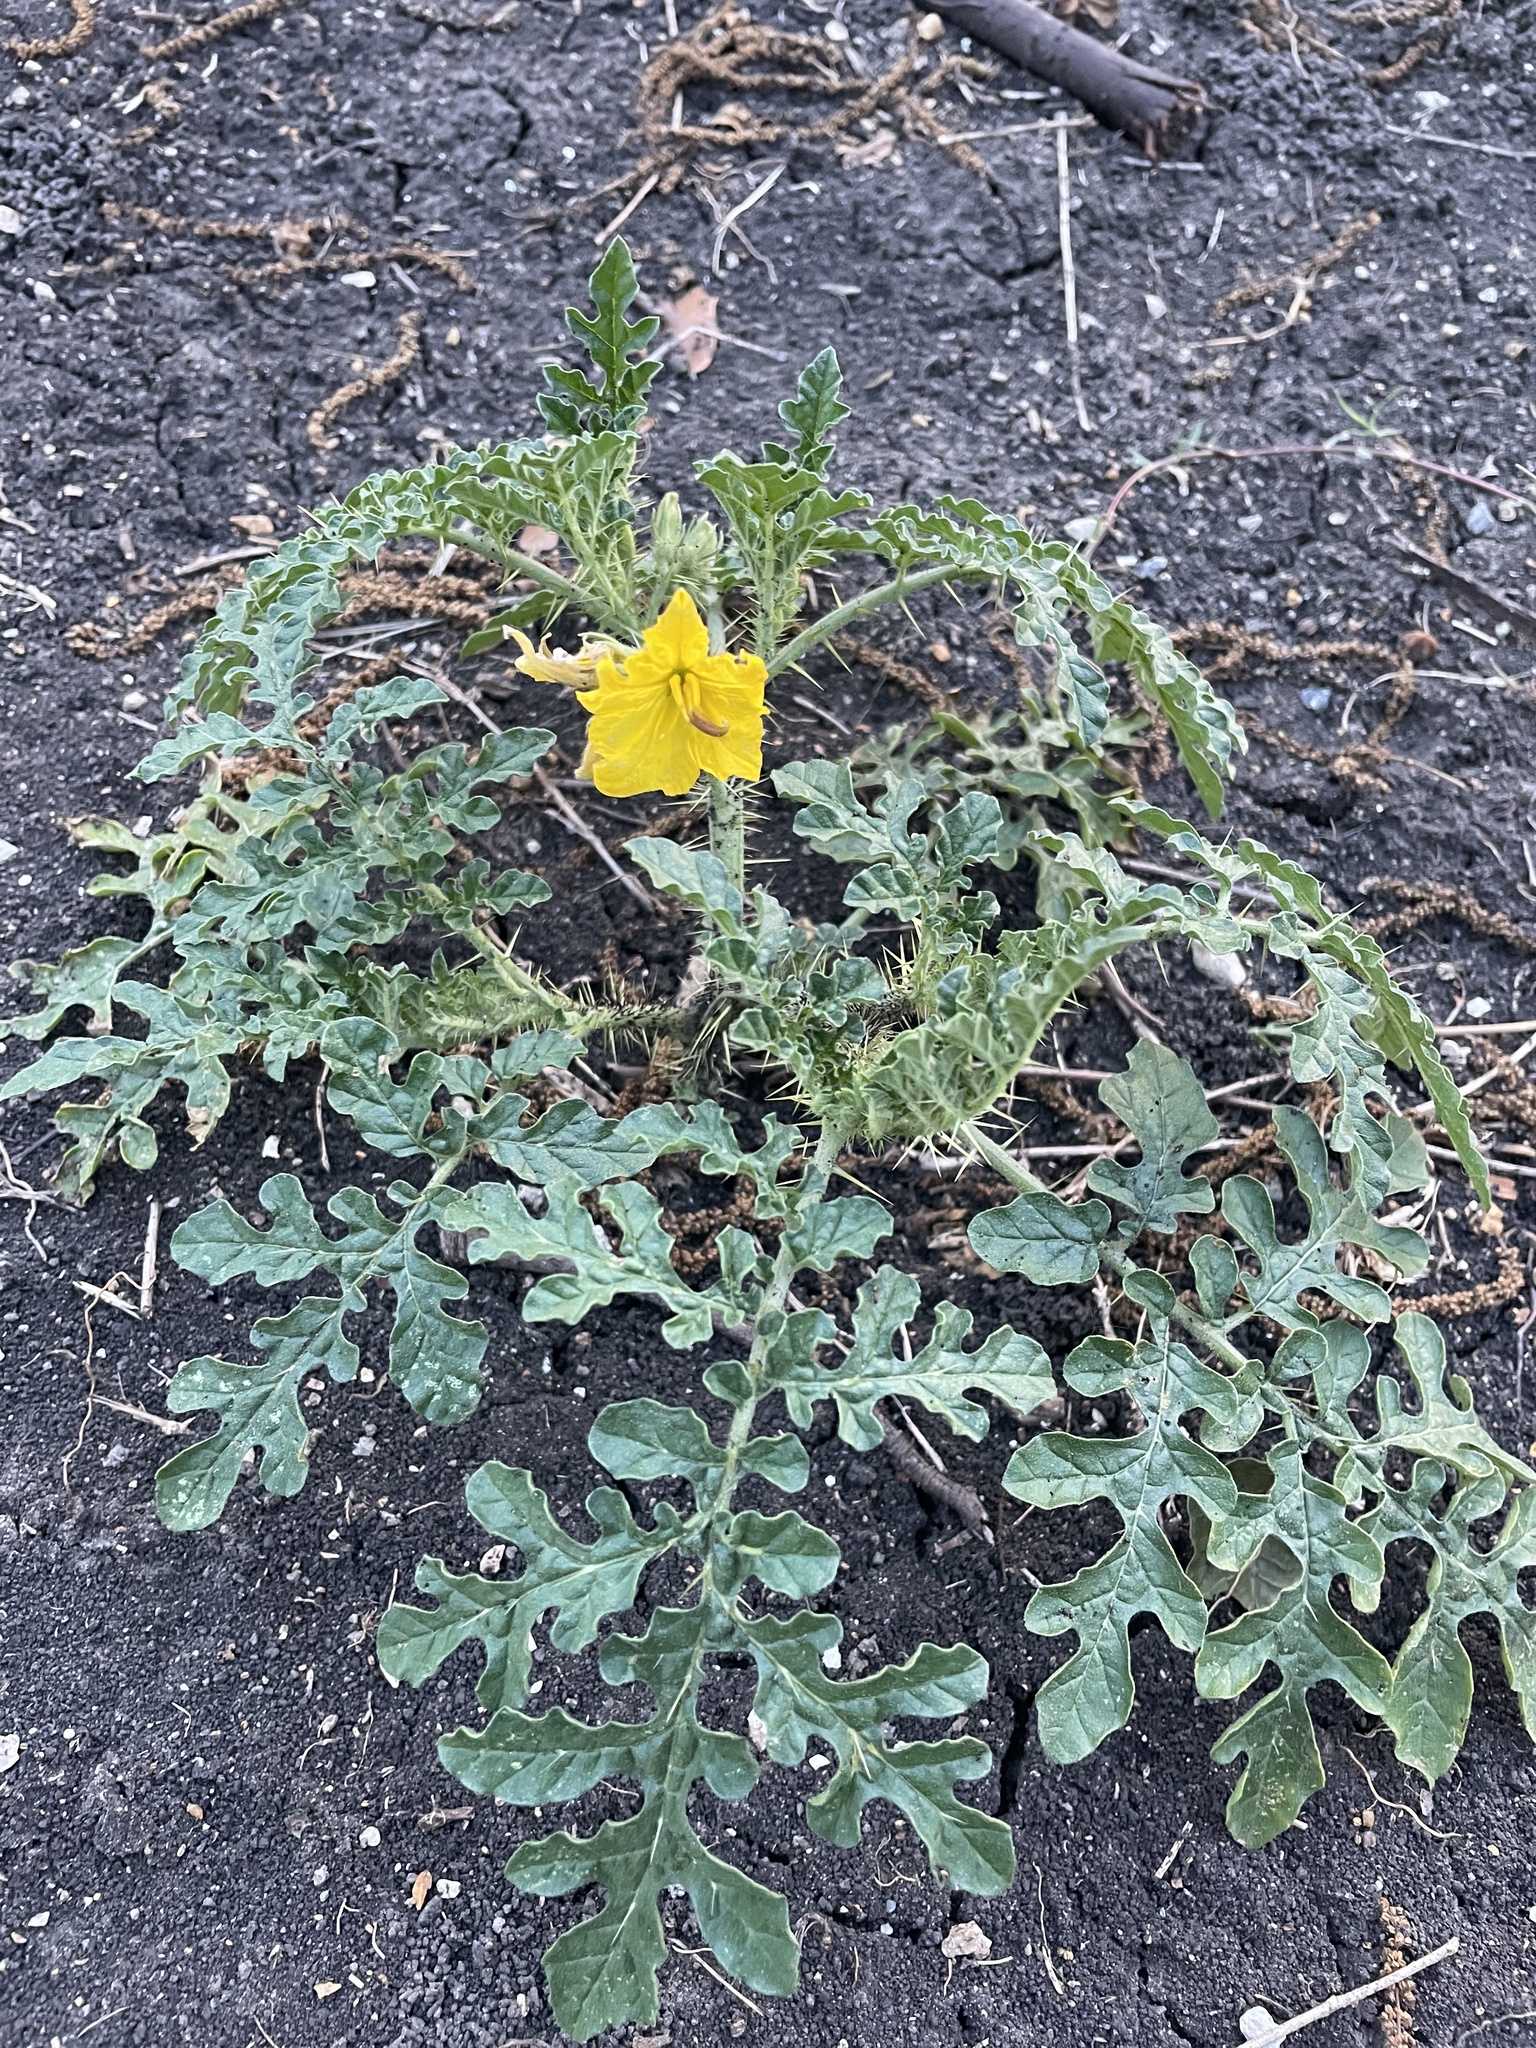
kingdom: Plantae
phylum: Tracheophyta
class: Magnoliopsida
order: Solanales
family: Solanaceae
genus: Solanum
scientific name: Solanum angustifolium
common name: Buffalobur nightshade
